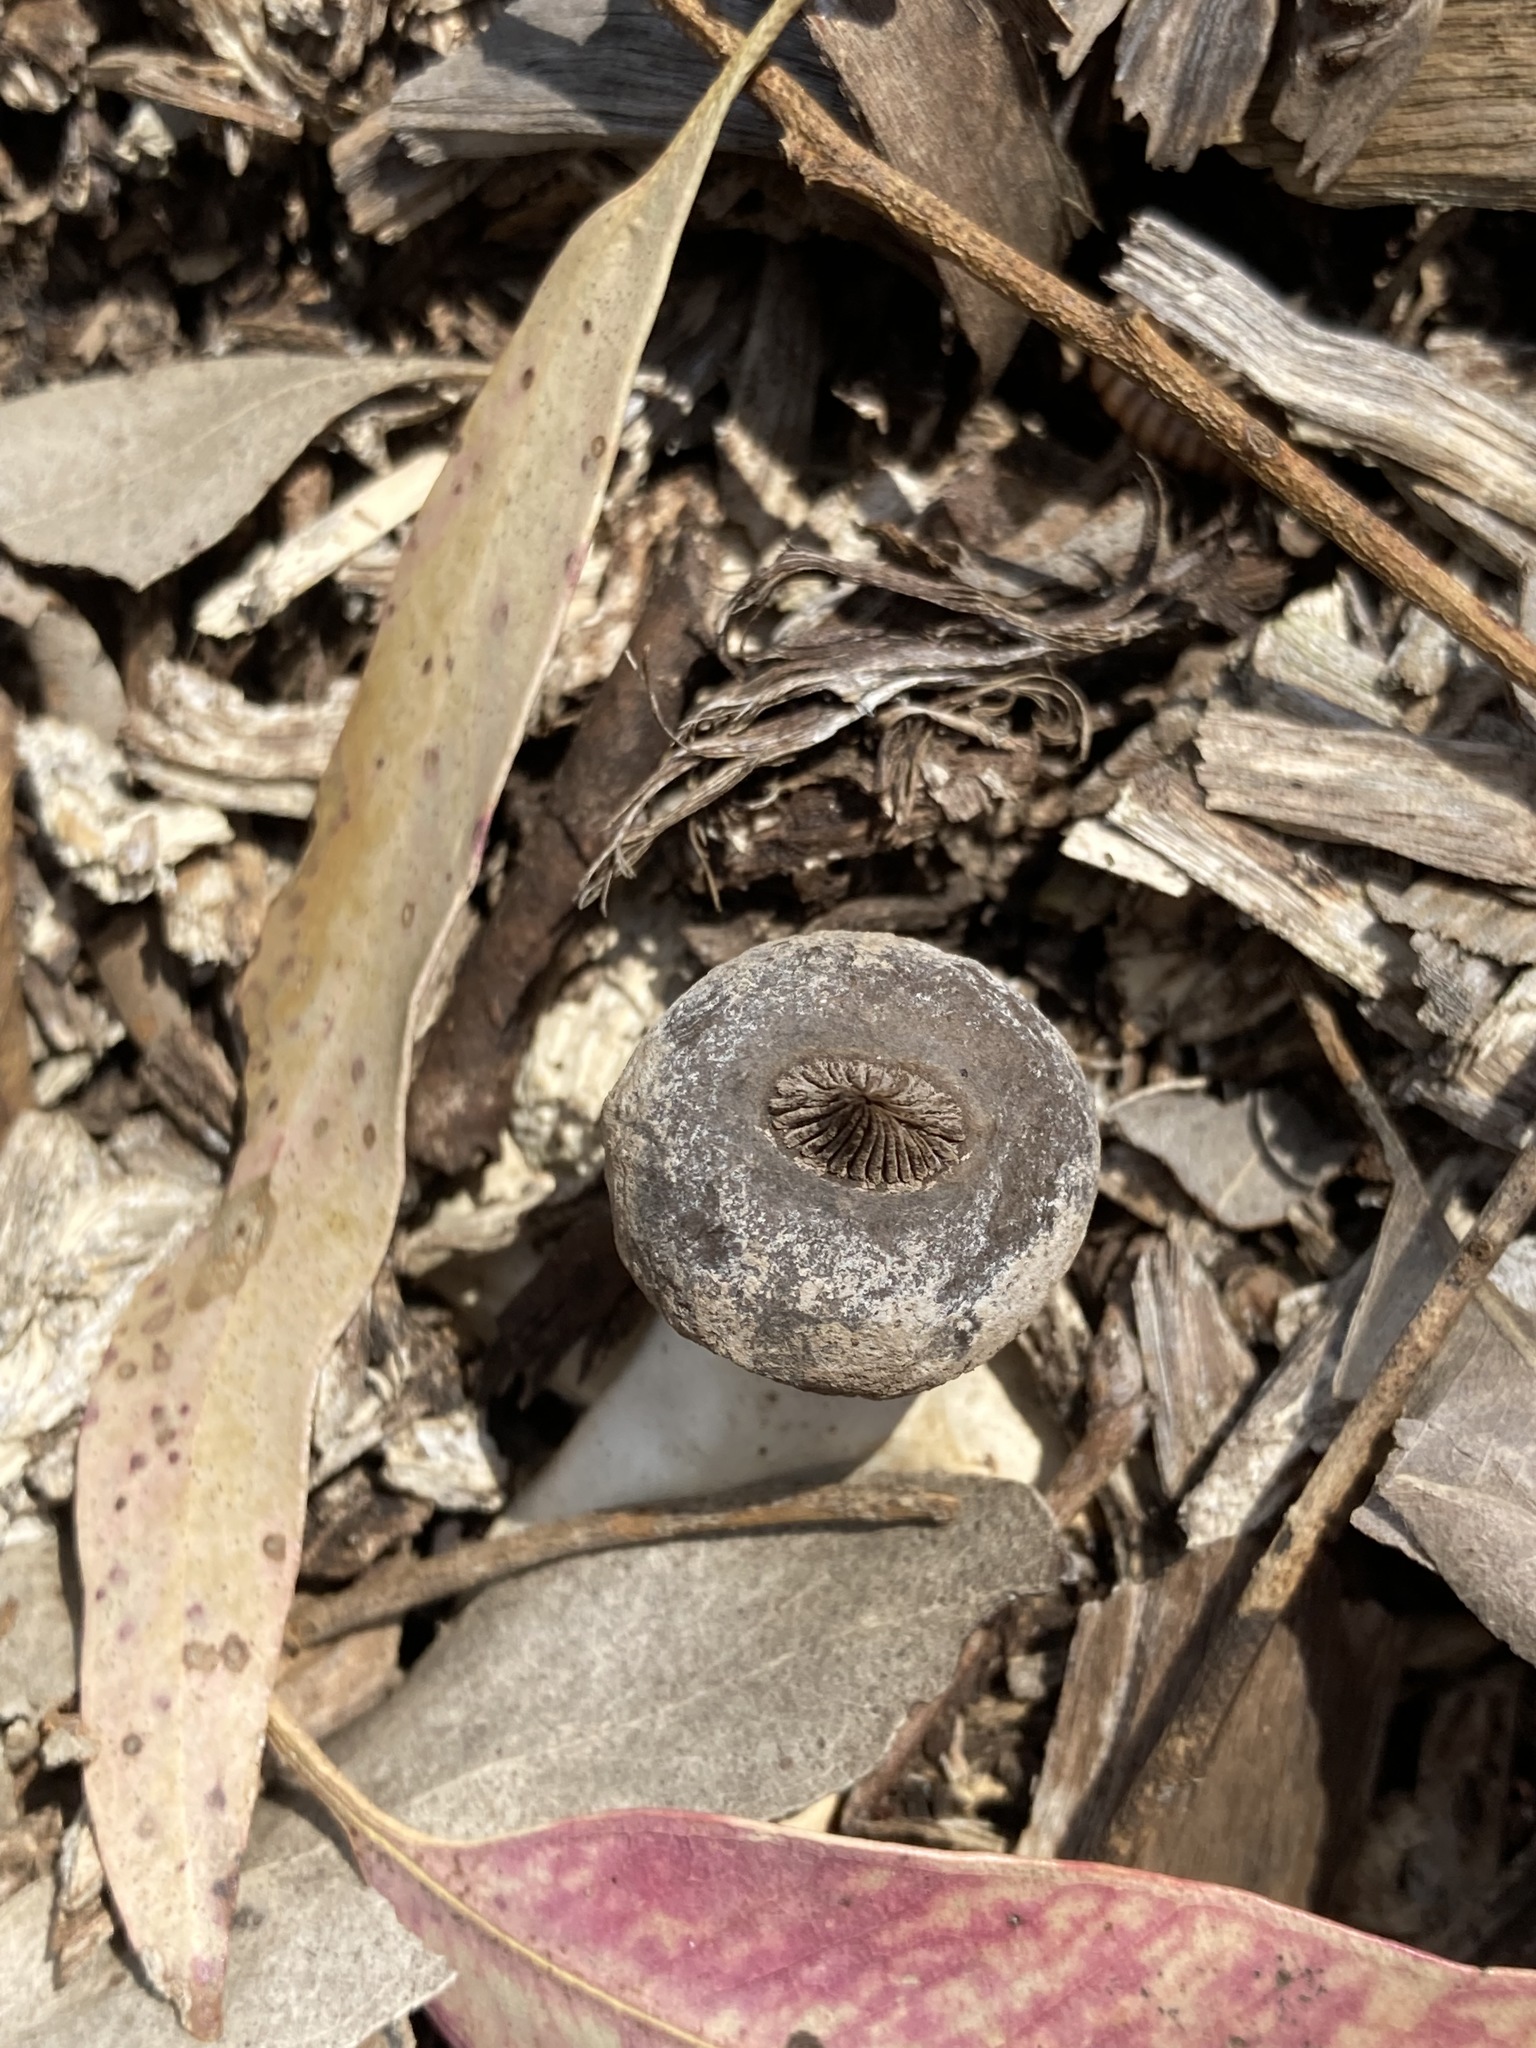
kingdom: Fungi
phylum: Basidiomycota
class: Agaricomycetes
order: Geastrales
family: Geastraceae
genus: Geastrum
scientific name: Geastrum pectinatum
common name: Beaked earthstar
